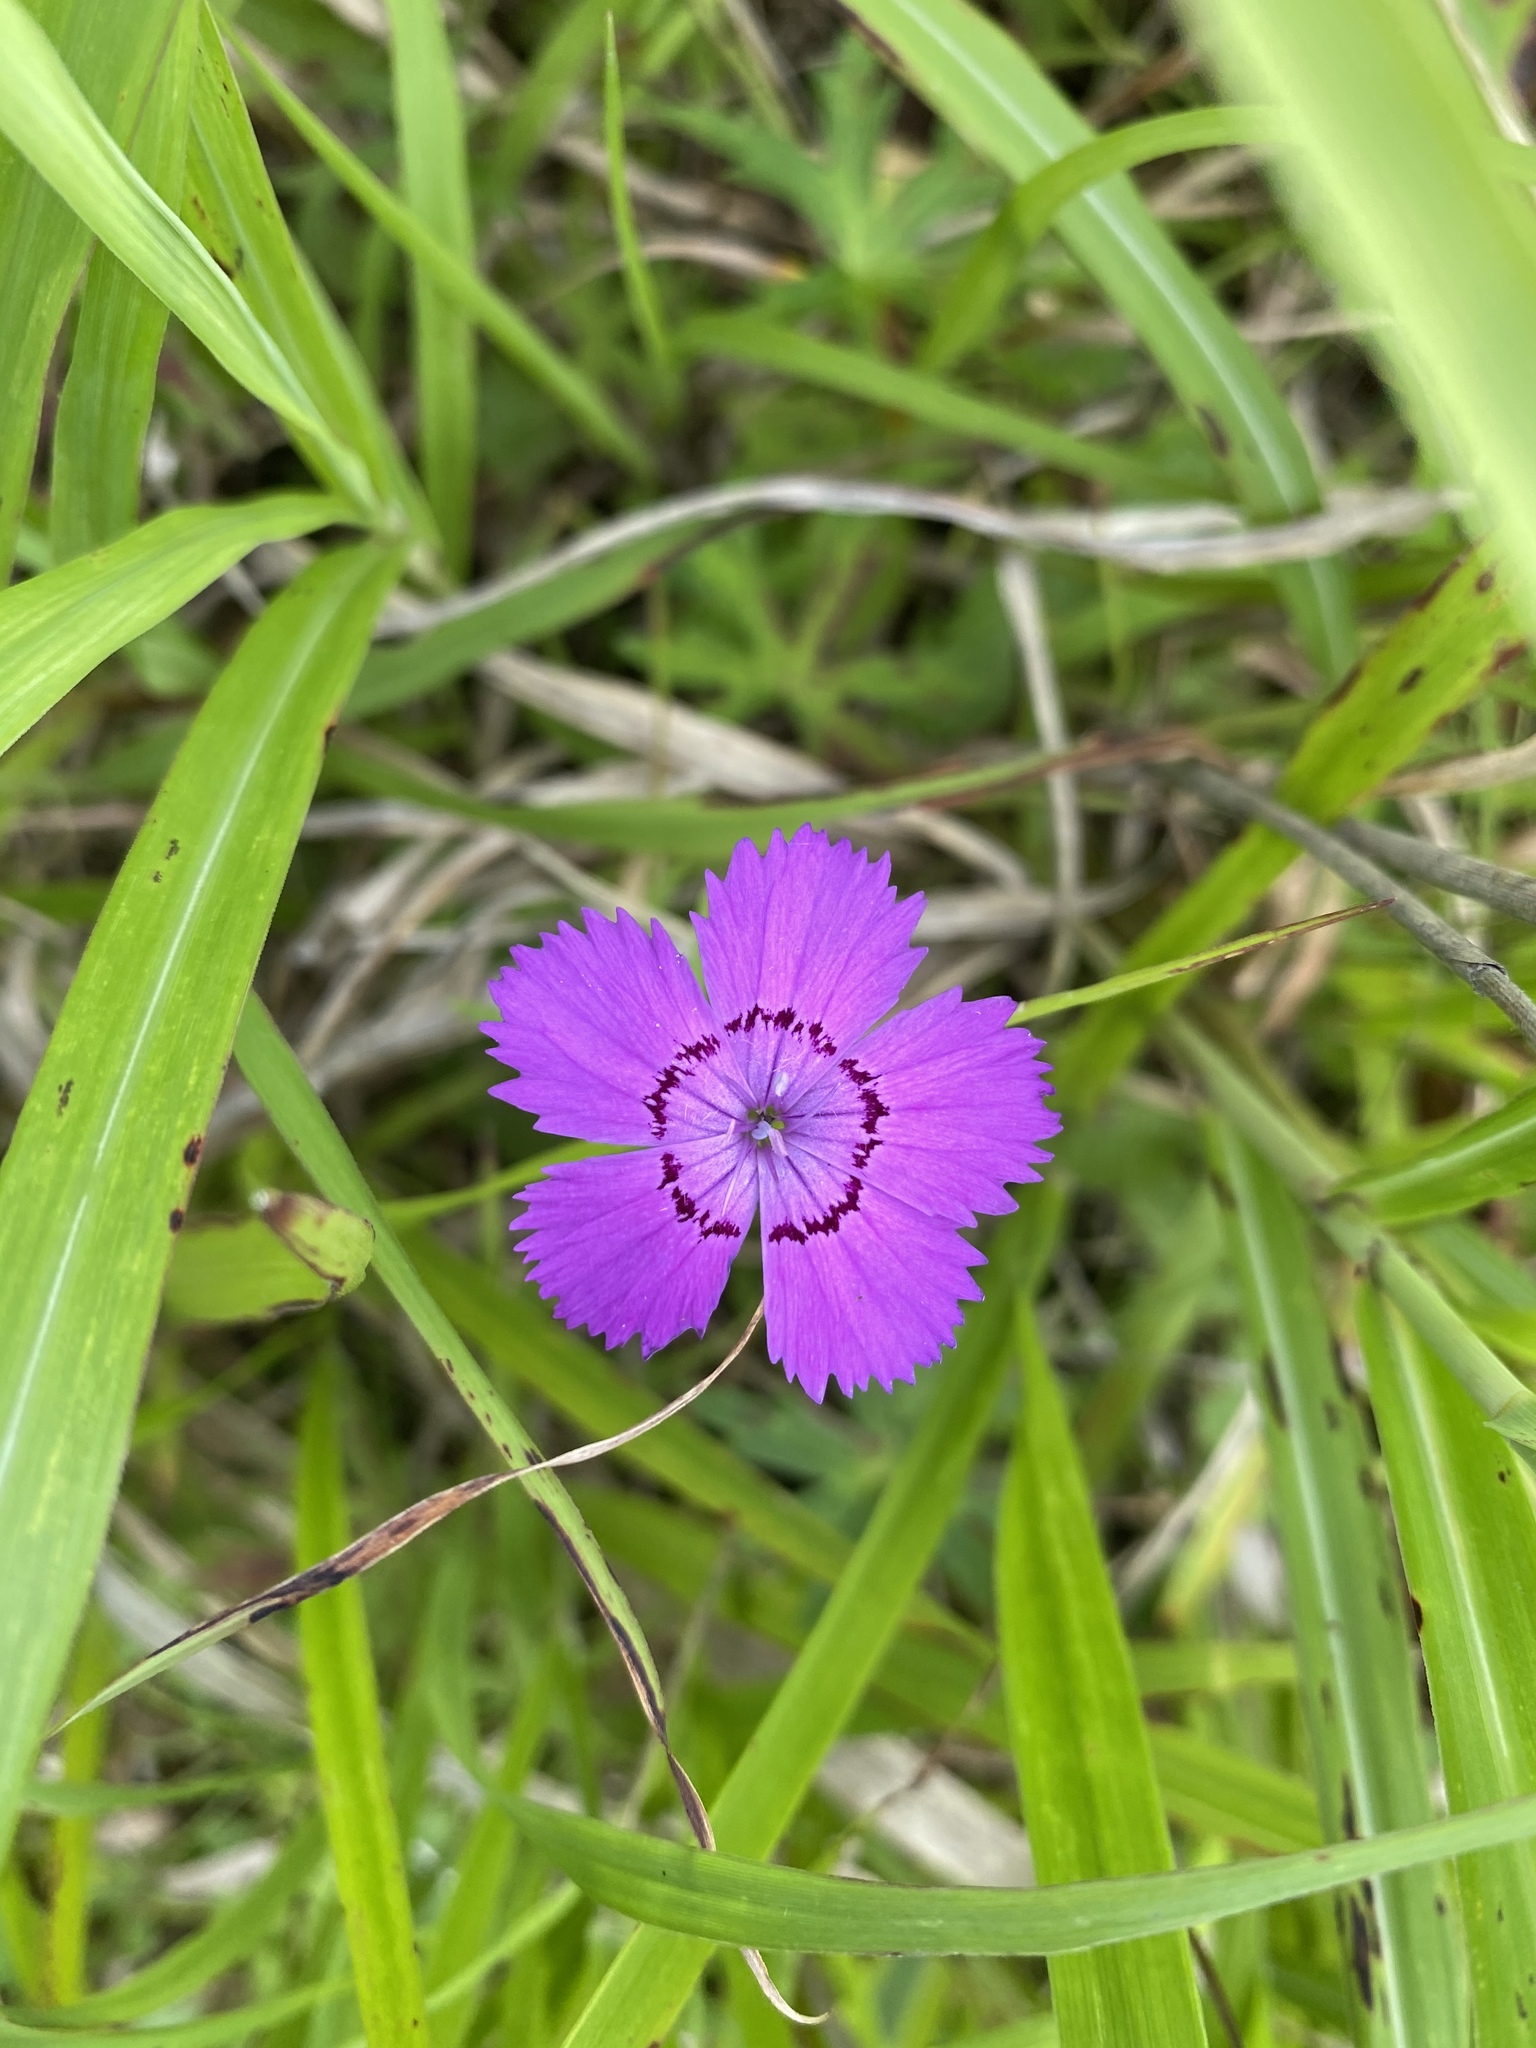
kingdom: Plantae
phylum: Tracheophyta
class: Magnoliopsida
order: Caryophyllales
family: Caryophyllaceae
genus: Dianthus
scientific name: Dianthus chinensis
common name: Rainbow pink
